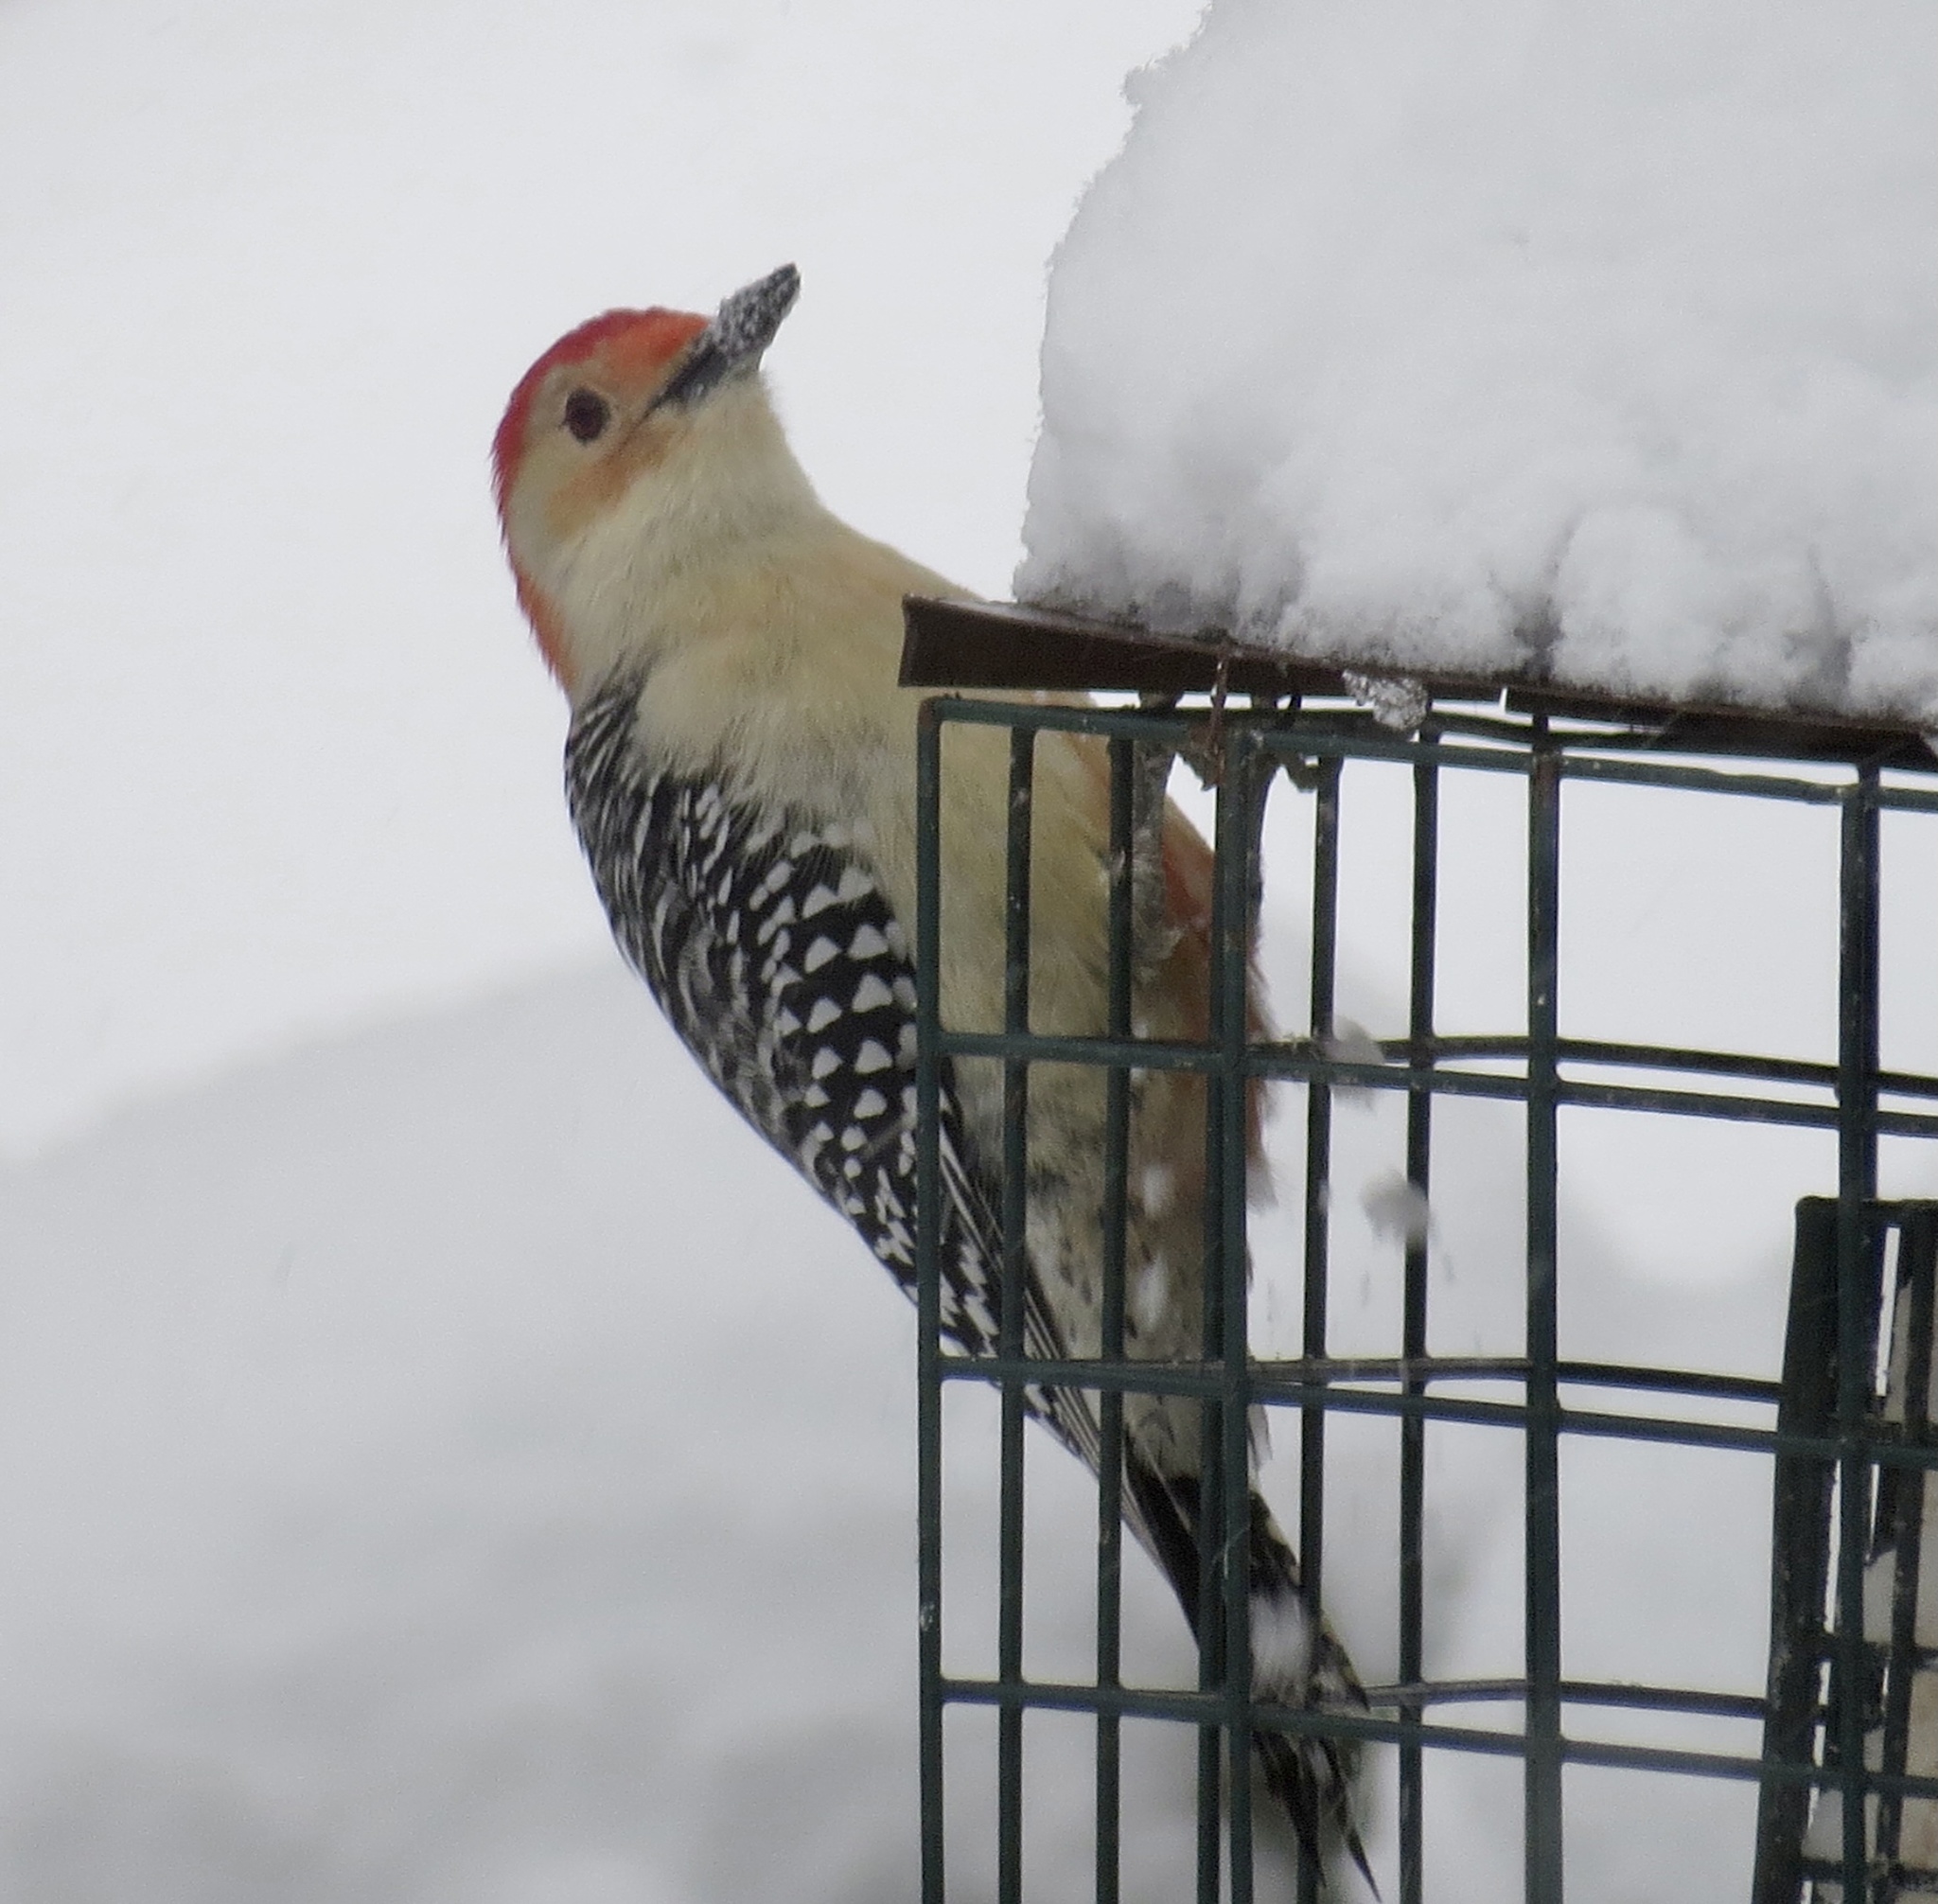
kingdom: Animalia
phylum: Chordata
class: Aves
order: Piciformes
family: Picidae
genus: Melanerpes
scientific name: Melanerpes carolinus
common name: Red-bellied woodpecker
